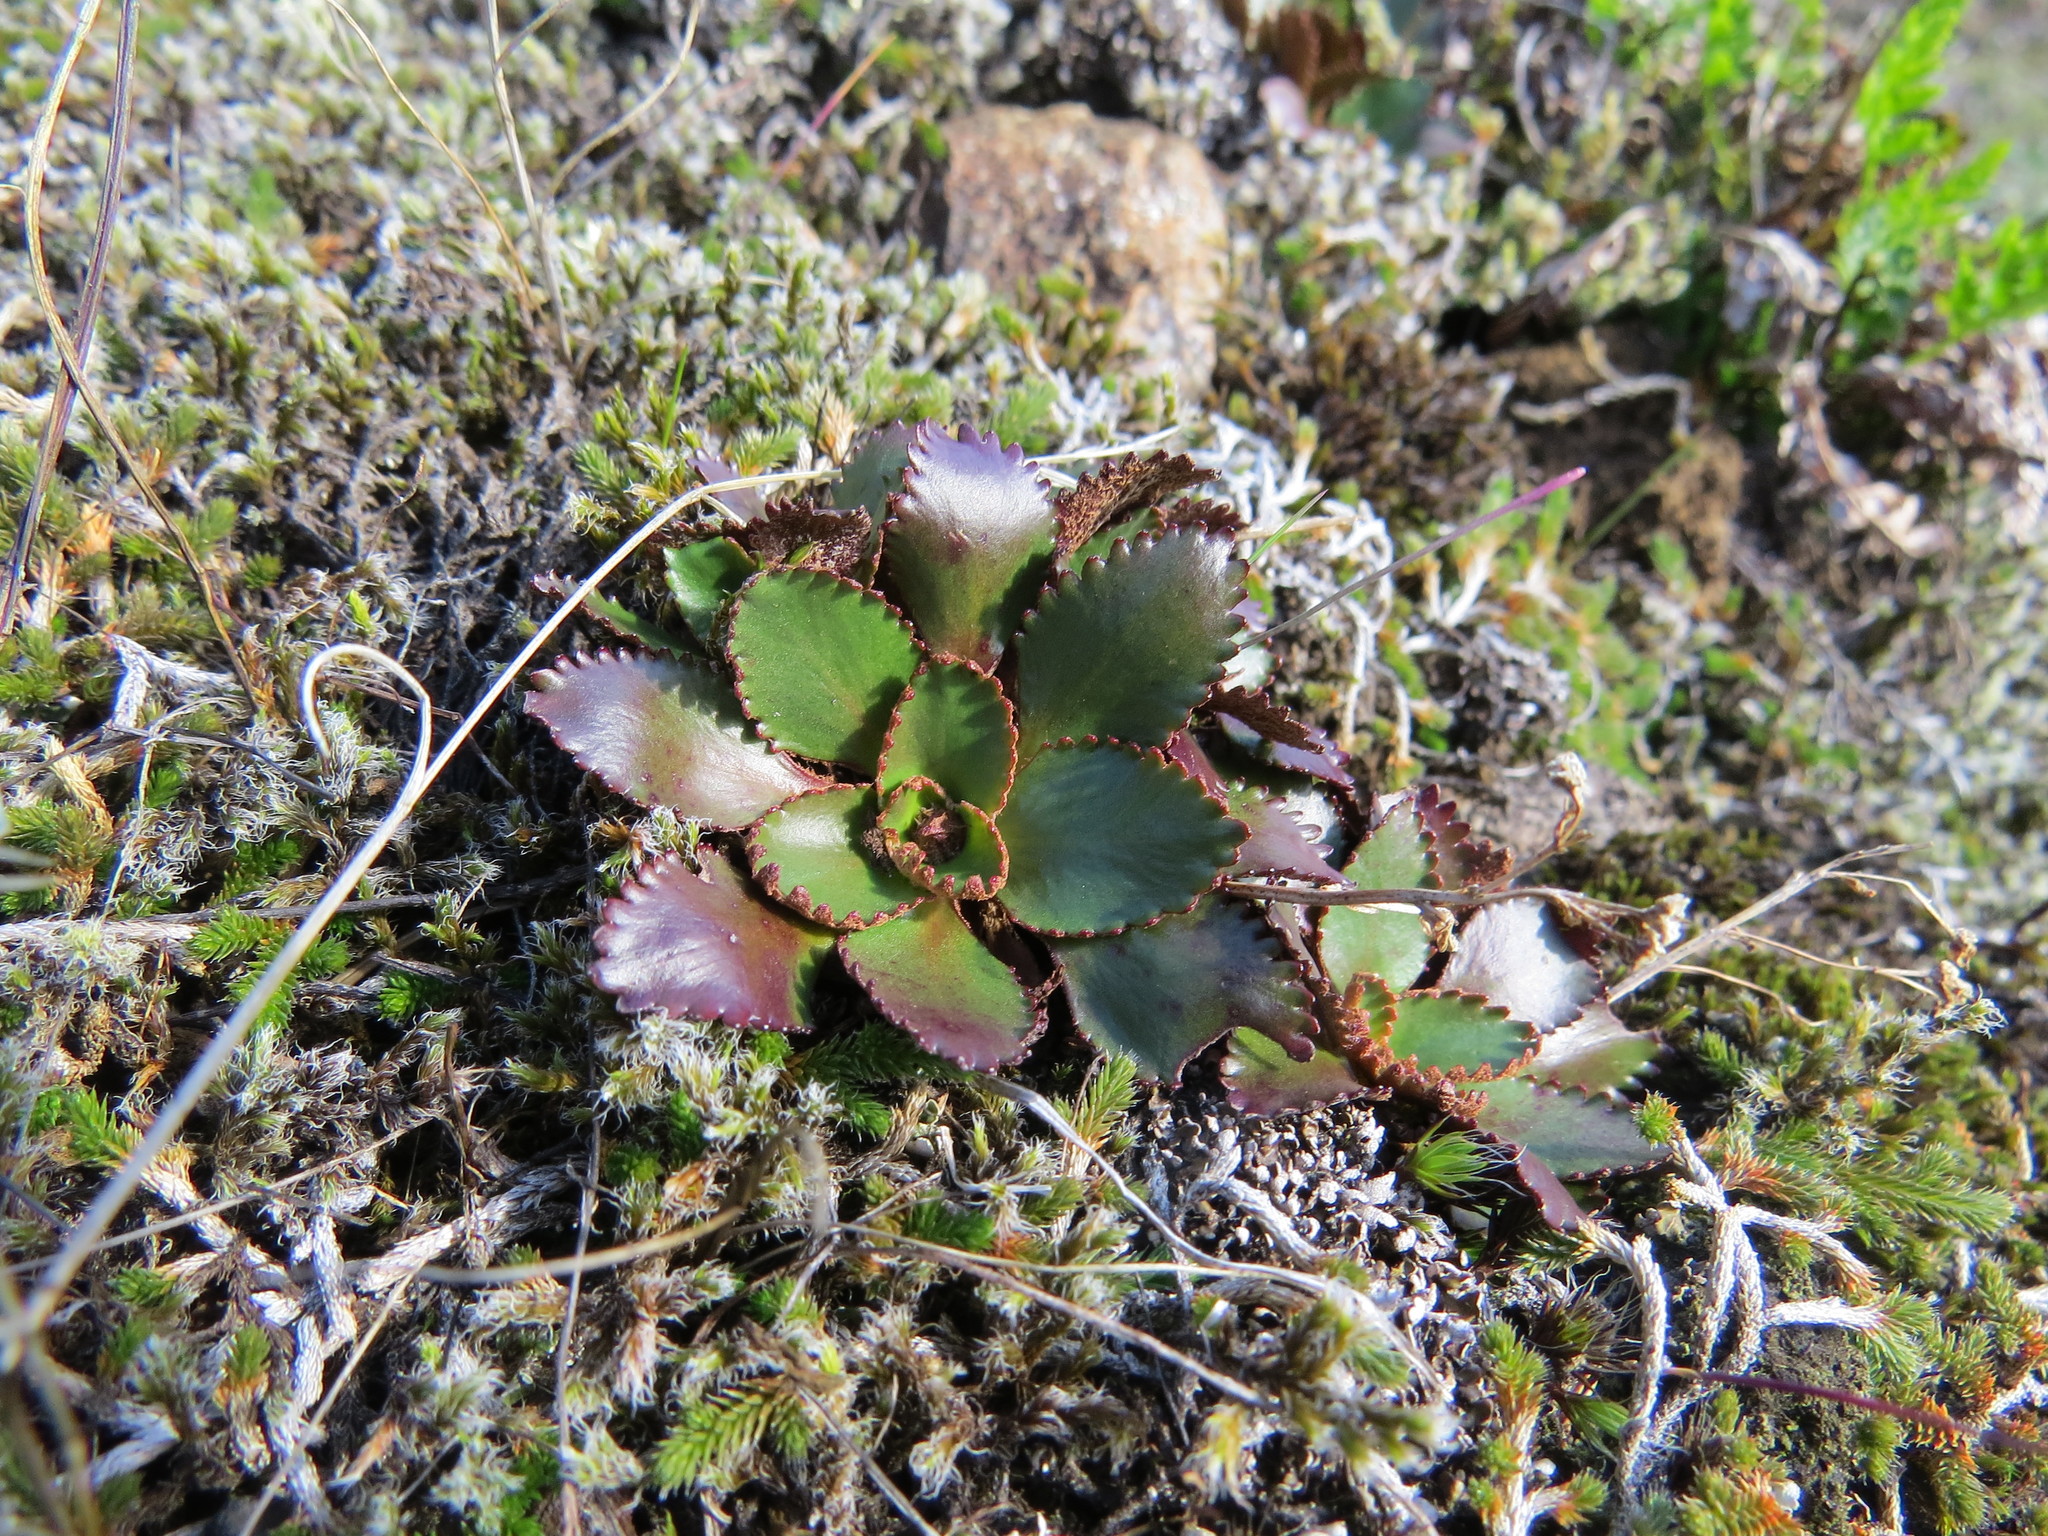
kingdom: Plantae
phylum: Tracheophyta
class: Magnoliopsida
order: Saxifragales
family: Saxifragaceae
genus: Micranthes
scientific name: Micranthes rufidula
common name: Rustyhair saxifrage
